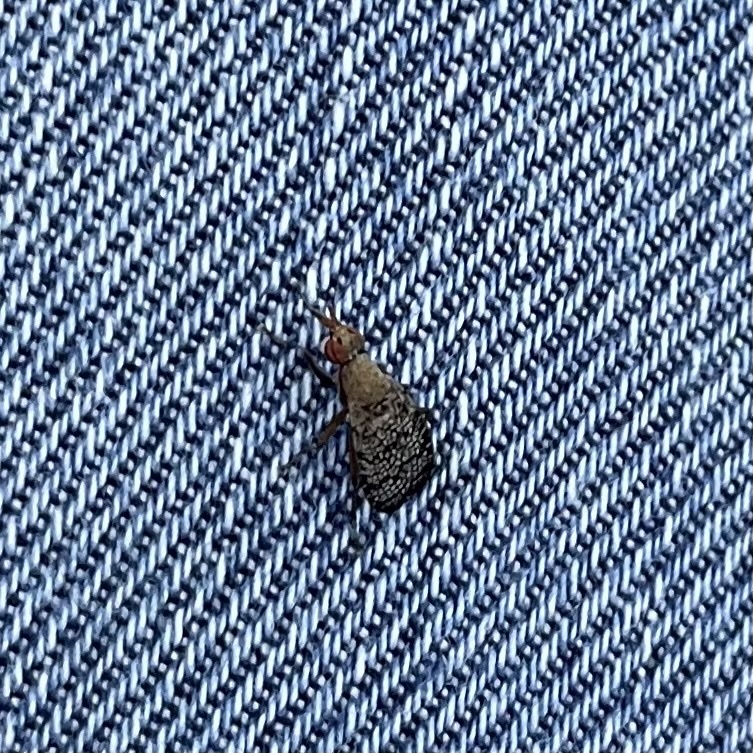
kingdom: Animalia
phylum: Arthropoda
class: Insecta
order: Diptera
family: Sciomyzidae
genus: Euthycera
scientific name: Euthycera flavescens
